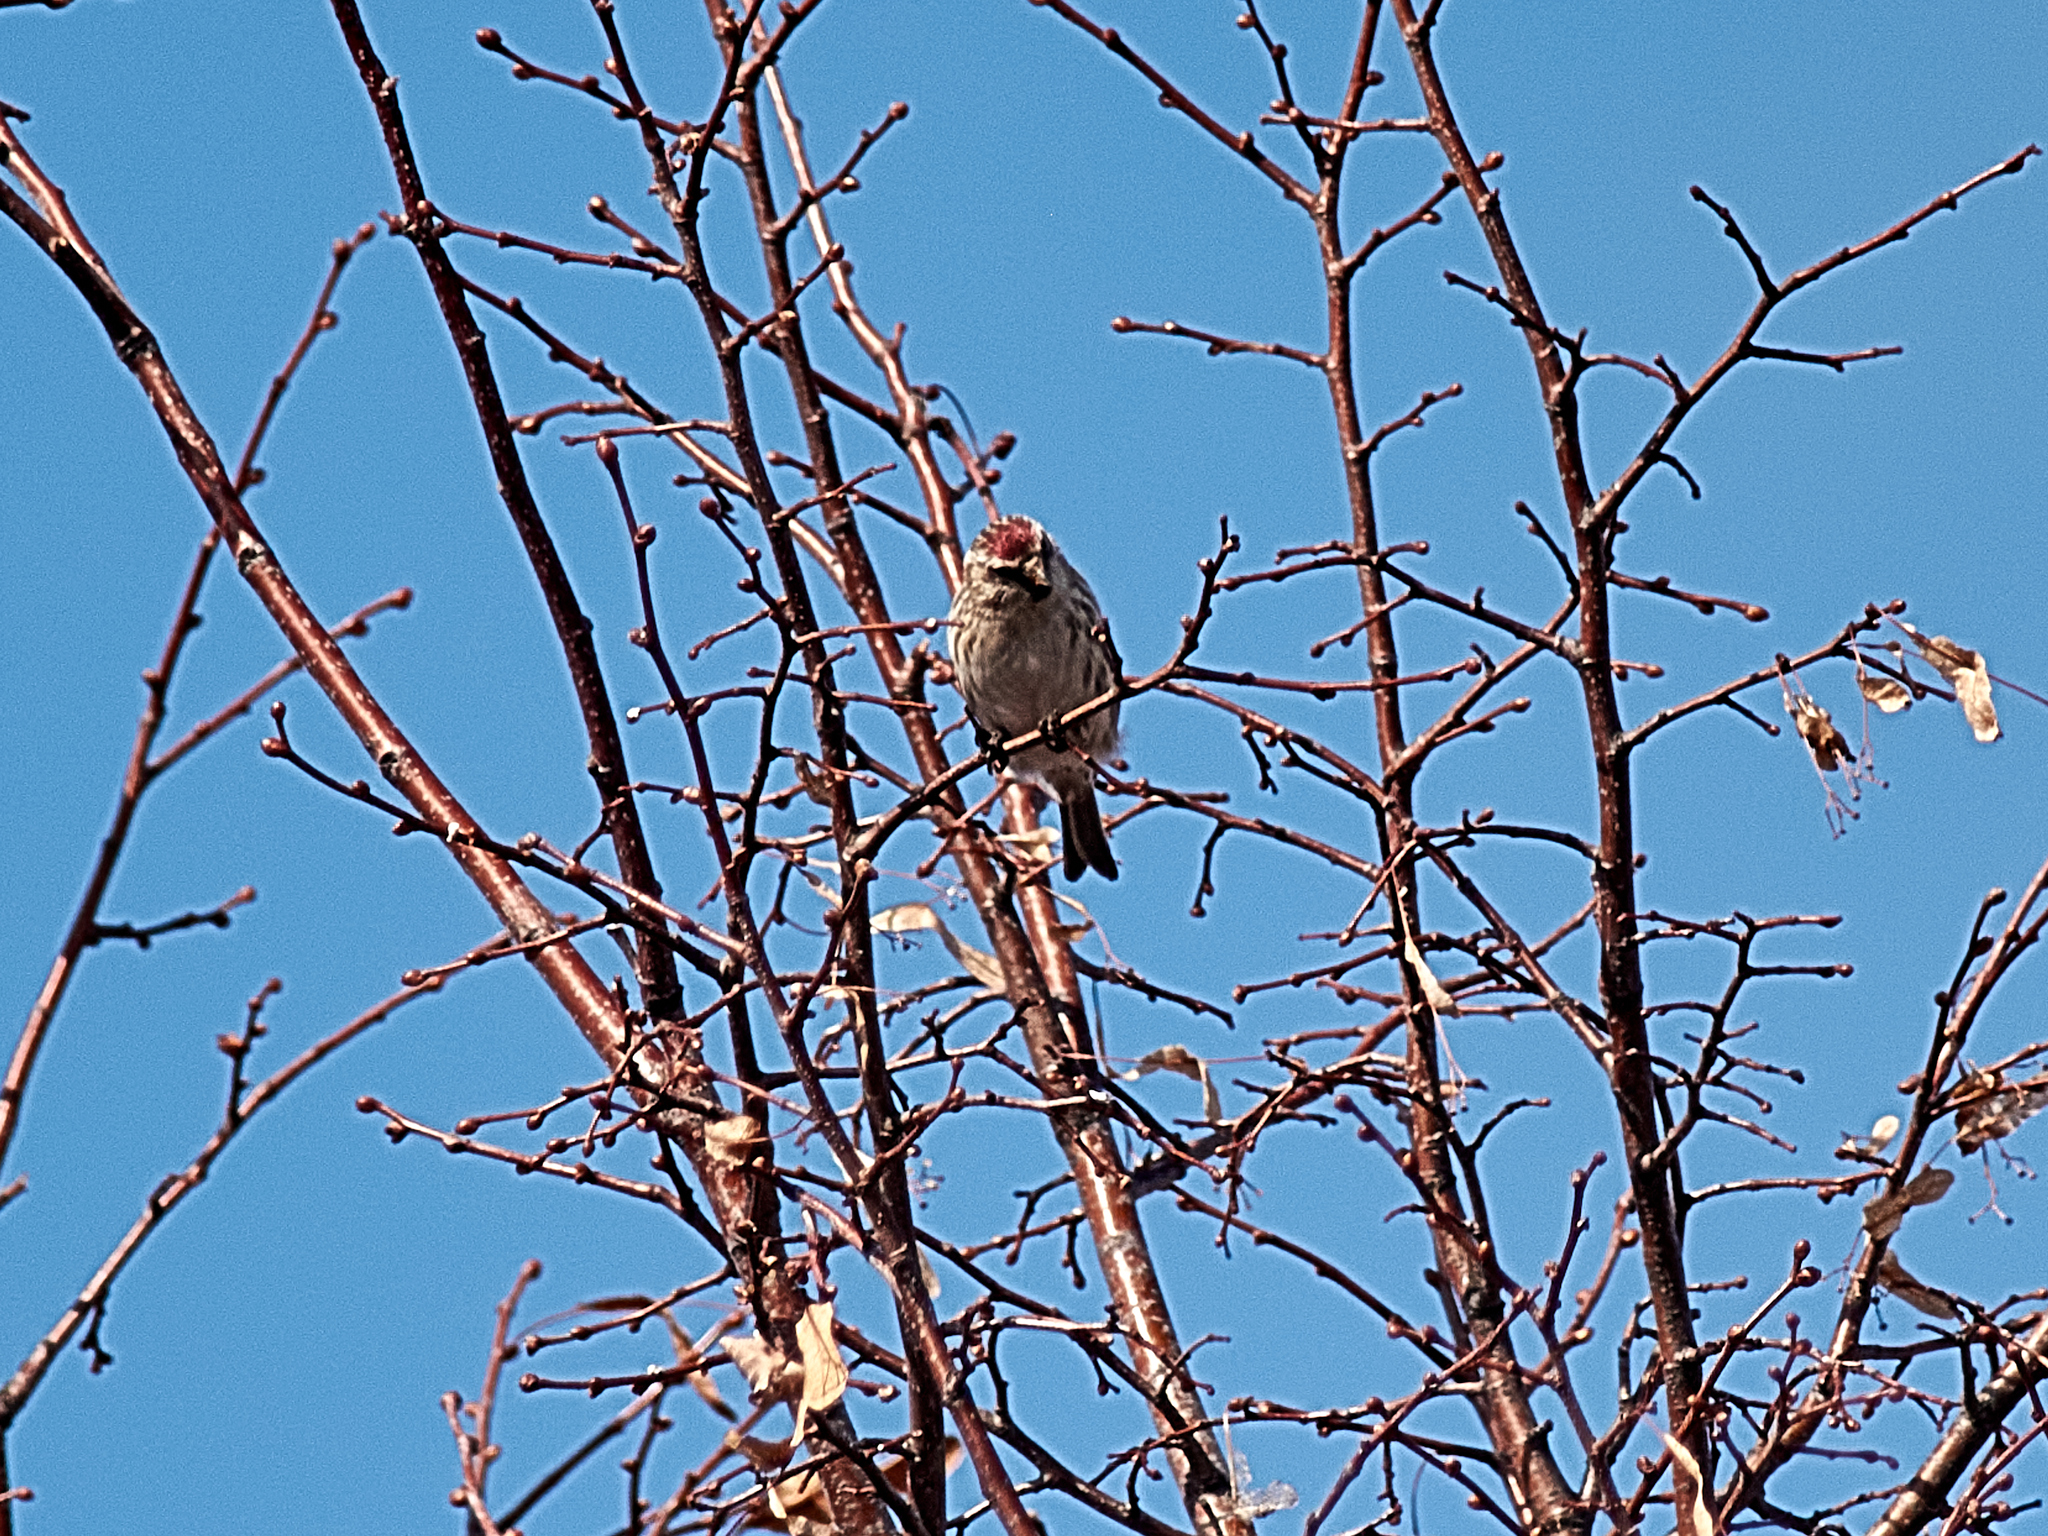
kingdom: Animalia
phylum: Chordata
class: Aves
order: Passeriformes
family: Fringillidae
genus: Acanthis
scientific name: Acanthis flammea
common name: Common redpoll
